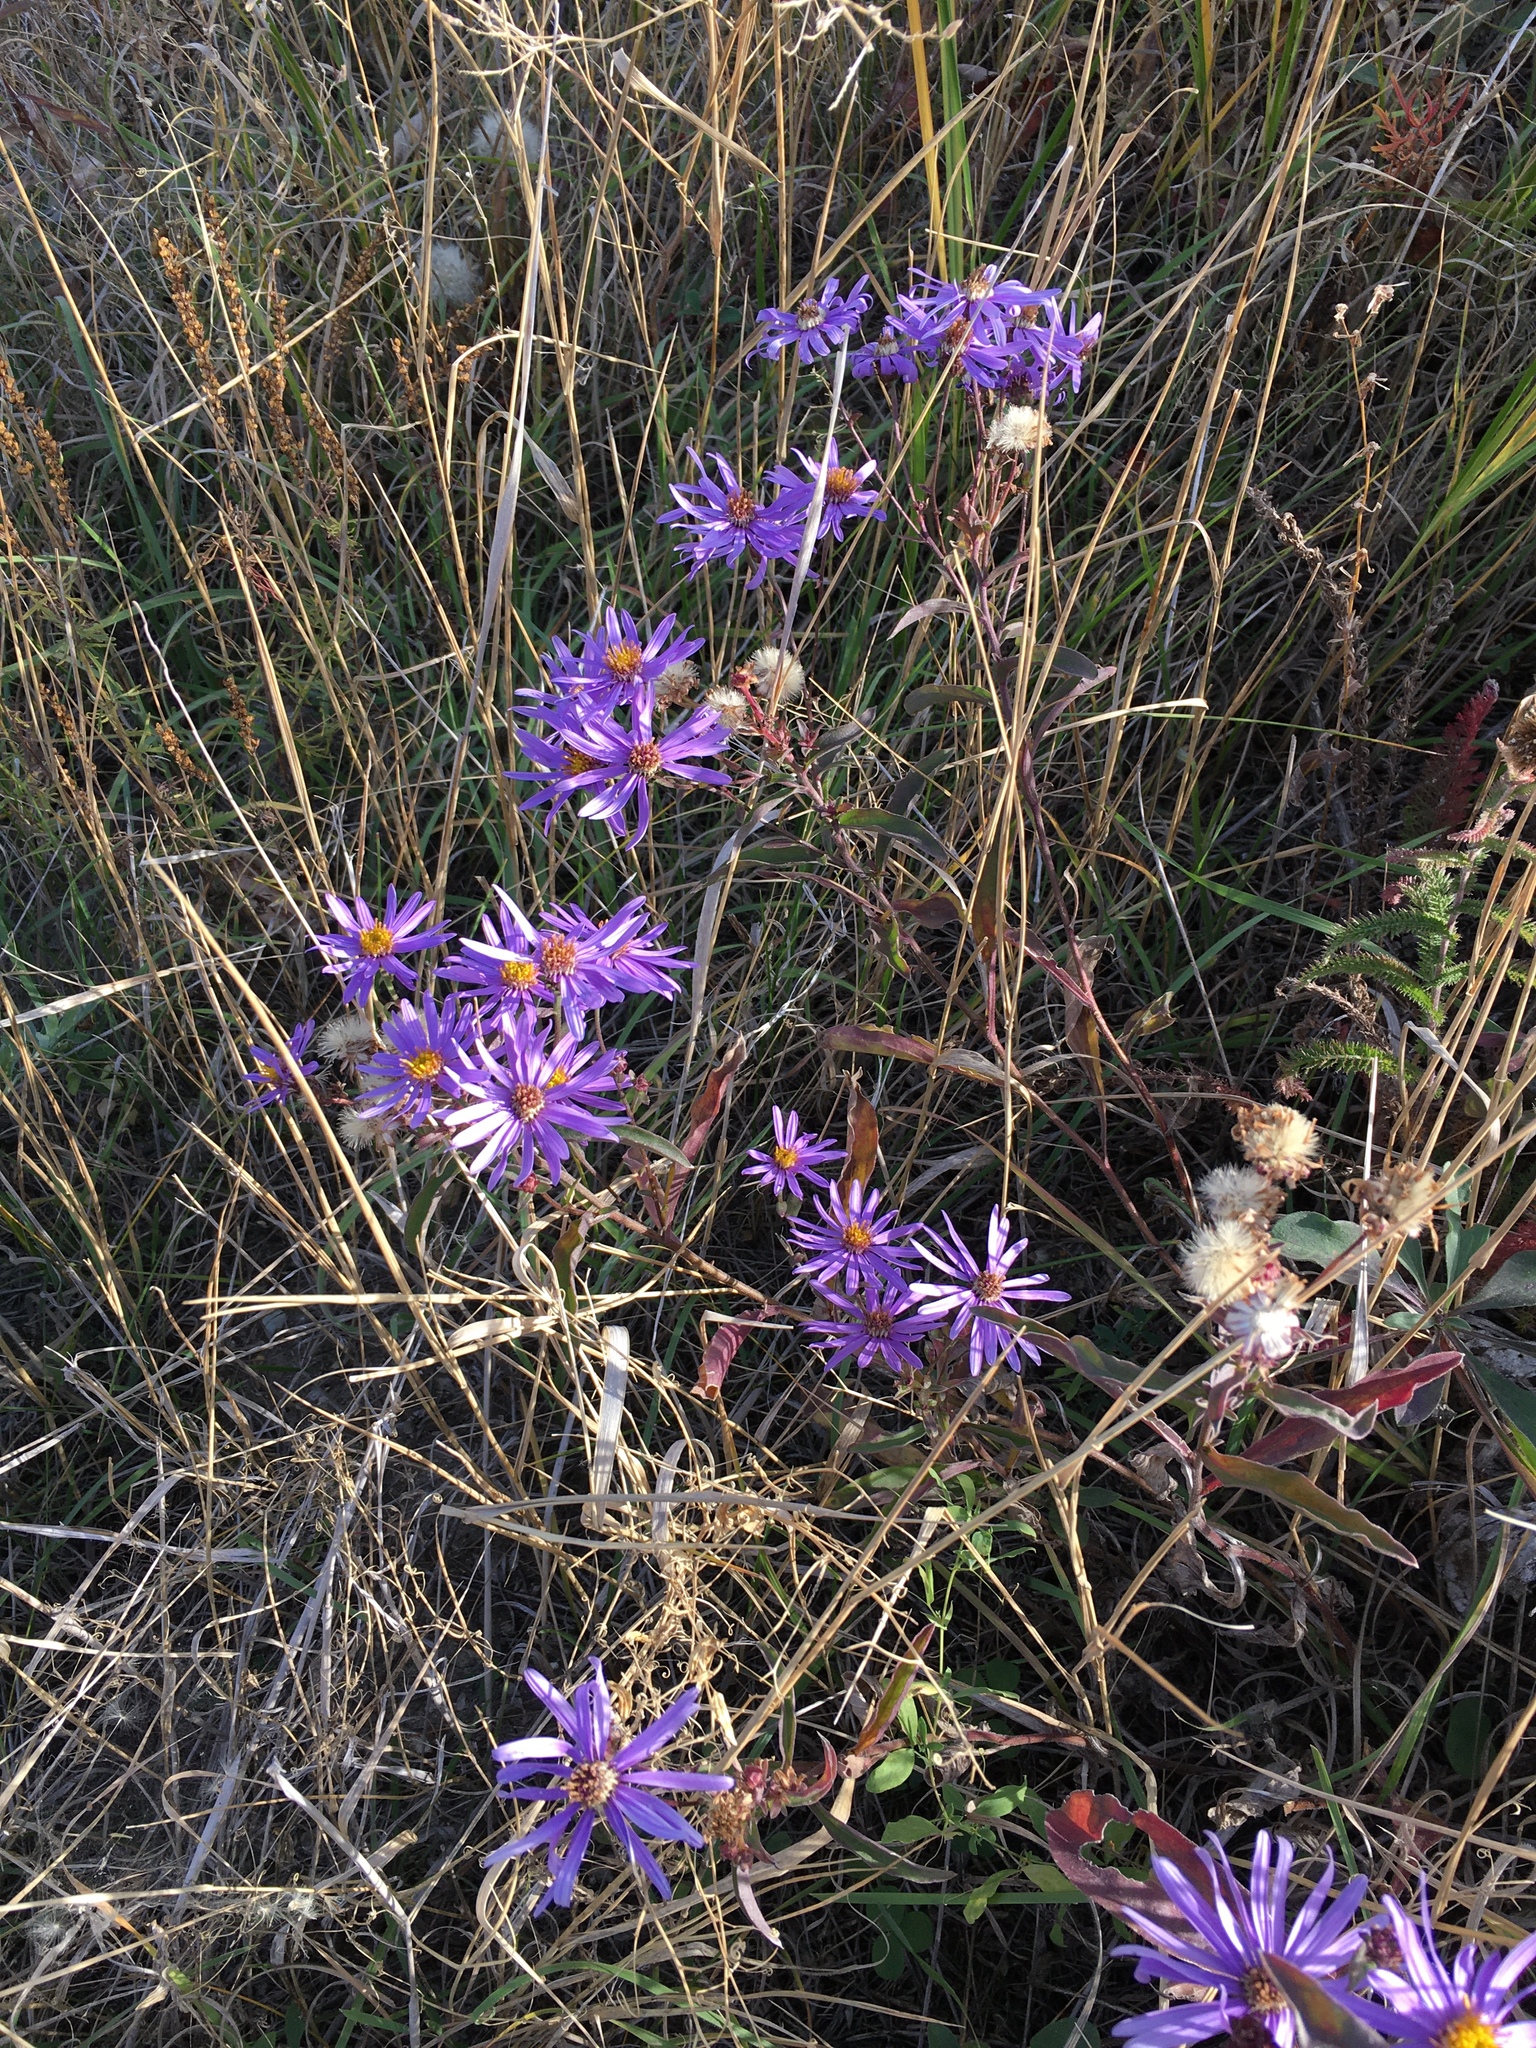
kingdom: Plantae
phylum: Tracheophyta
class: Magnoliopsida
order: Asterales
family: Asteraceae
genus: Aster
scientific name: Aster amellus
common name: European michaelmas daisy
